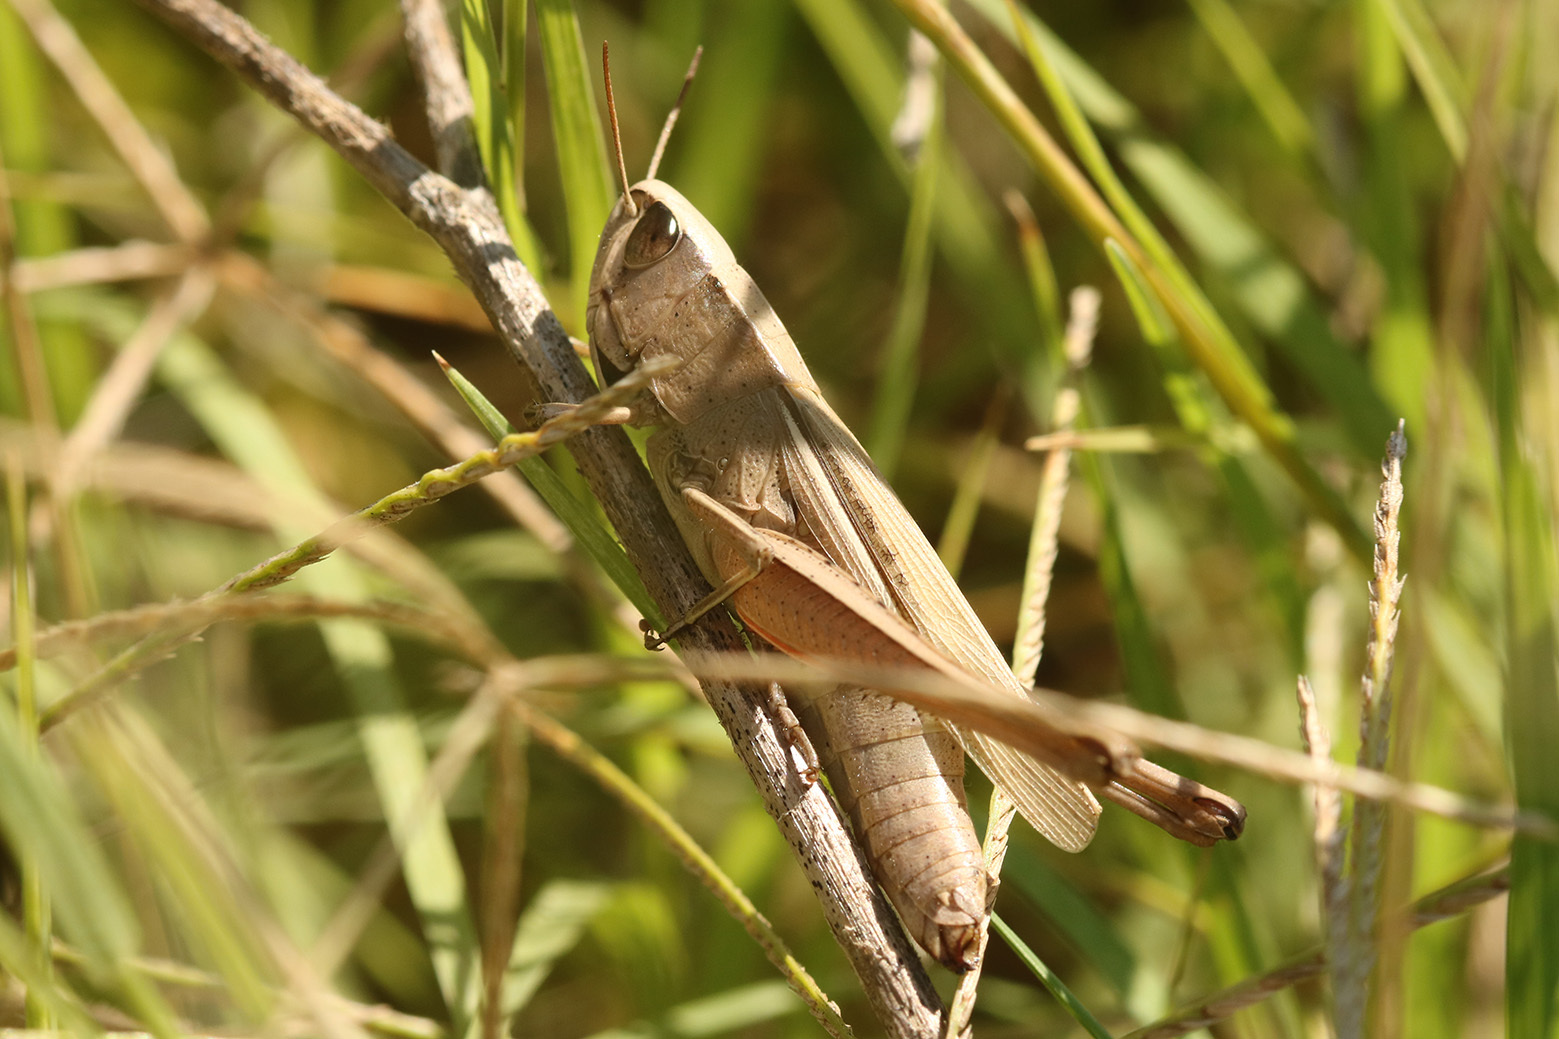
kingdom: Animalia
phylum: Arthropoda
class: Insecta
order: Orthoptera
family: Acrididae
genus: Amblytropidia
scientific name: Amblytropidia australis
